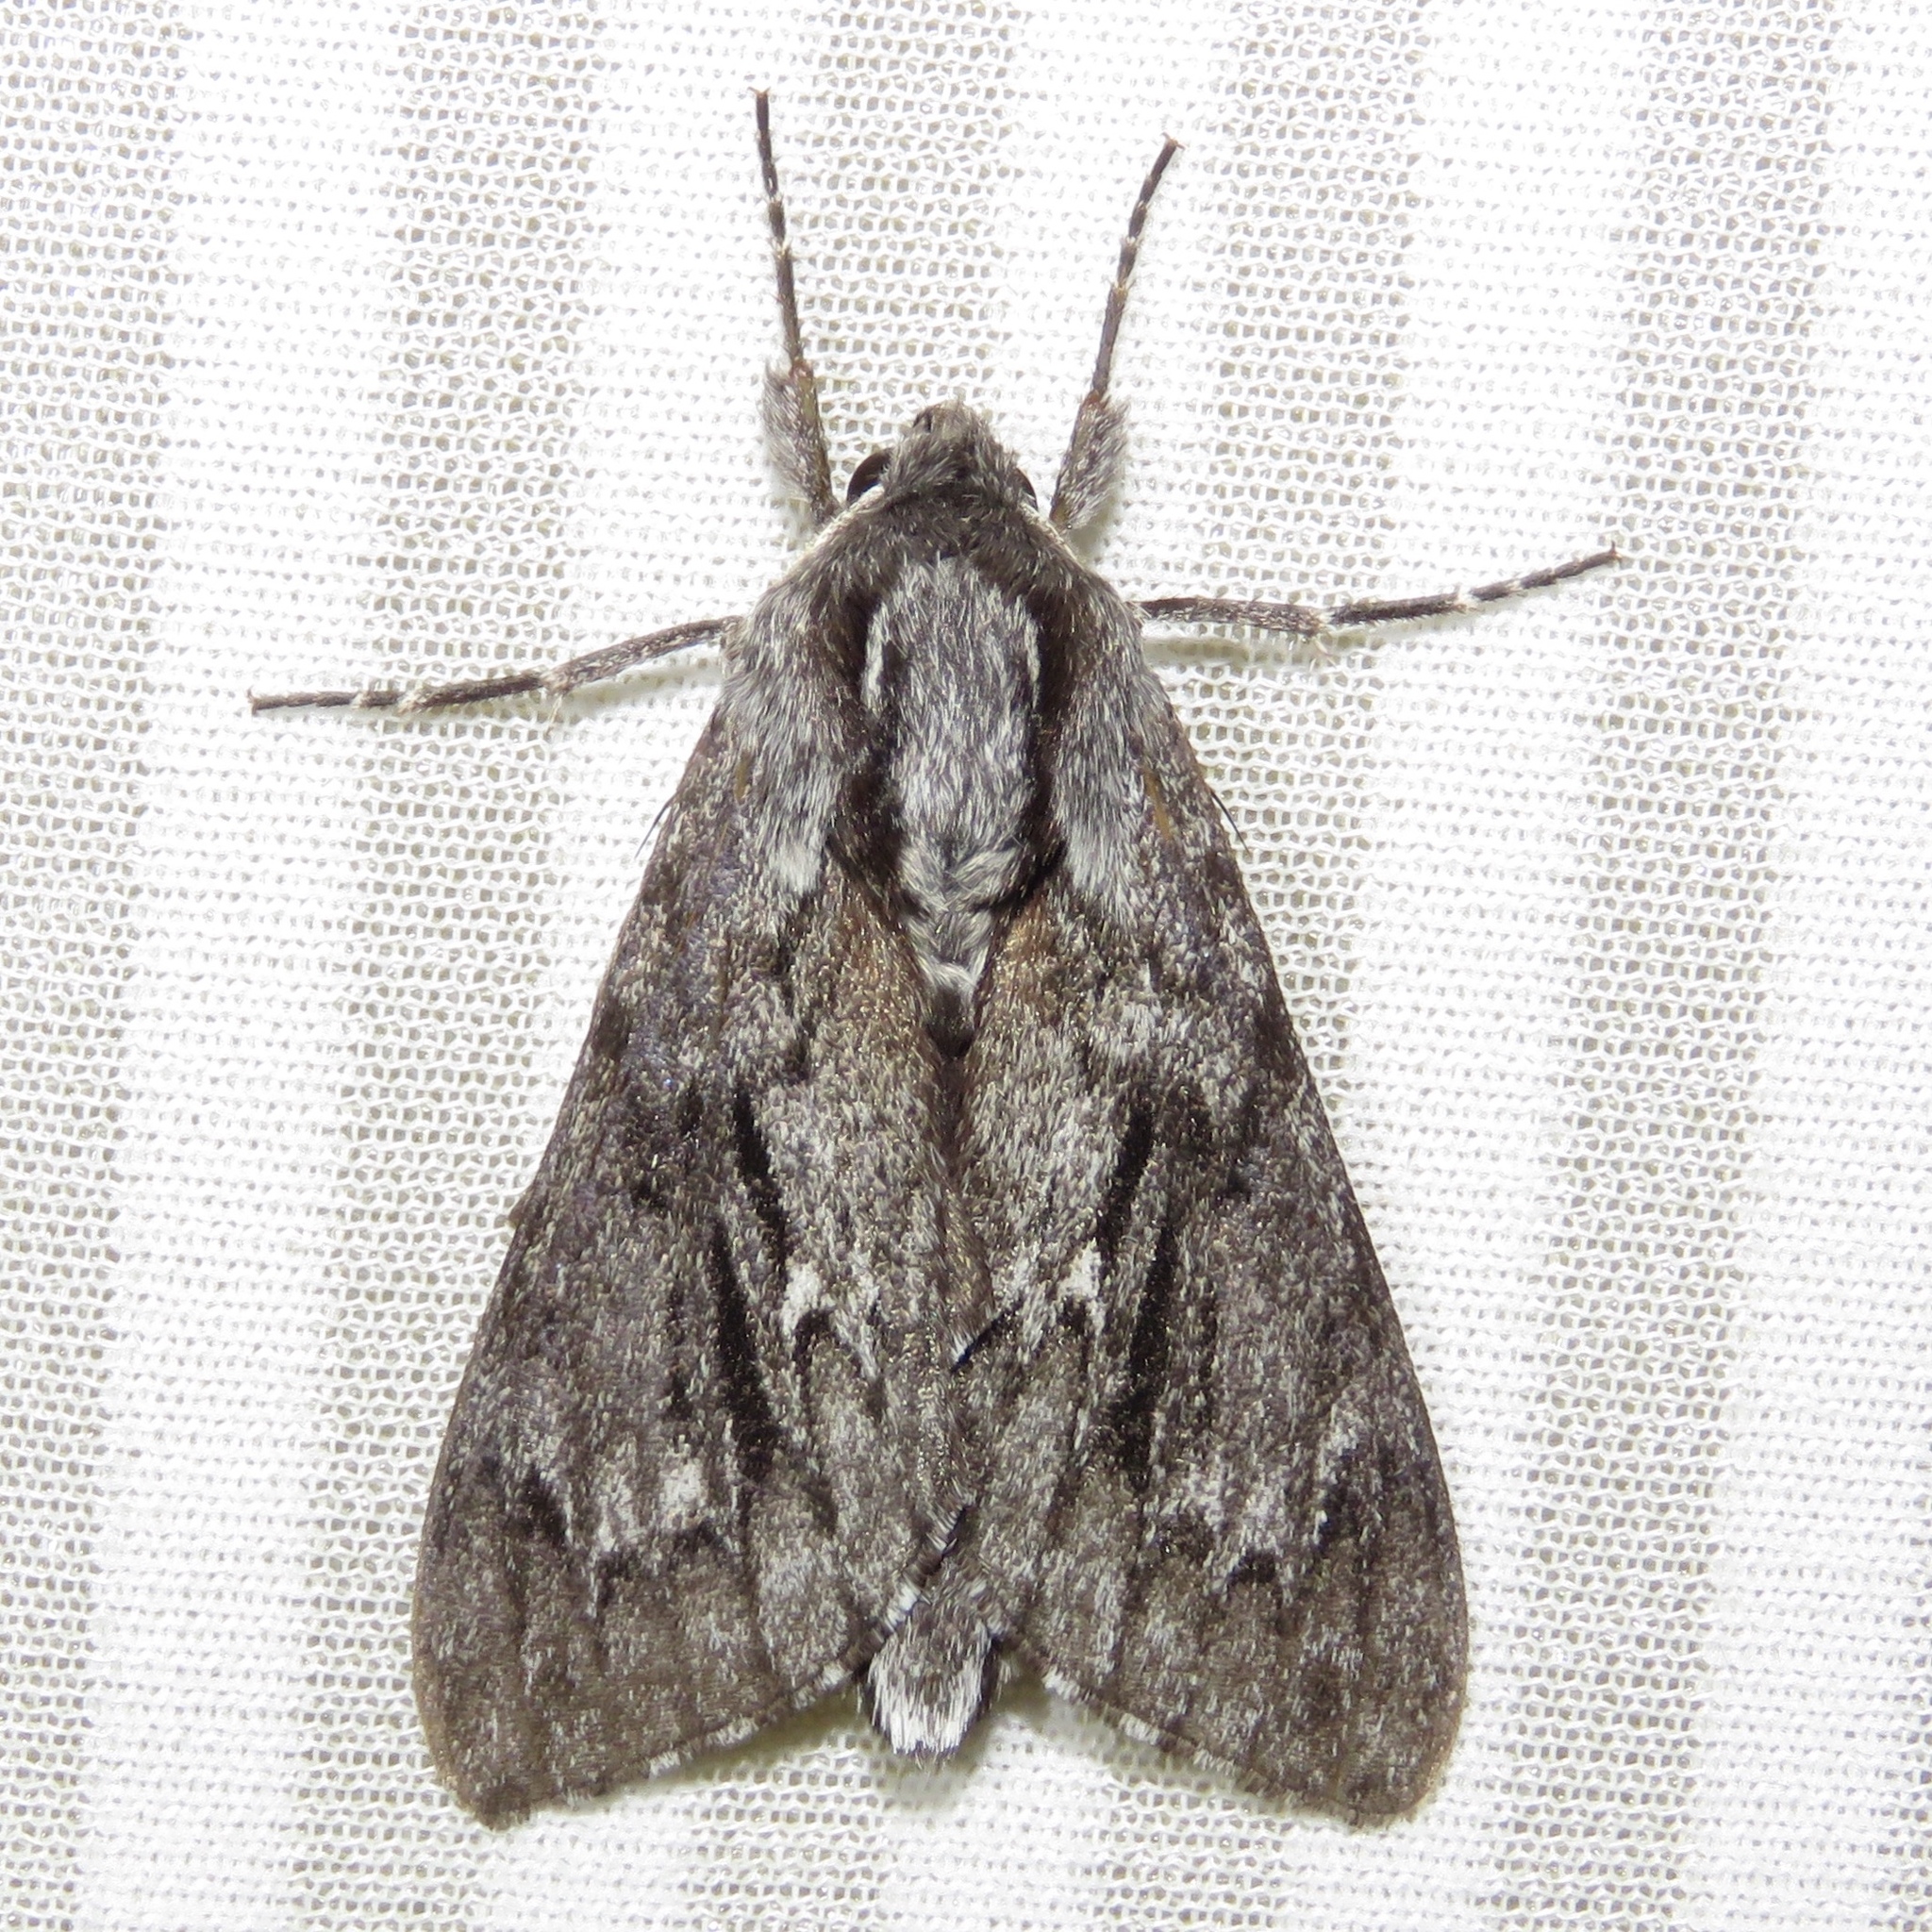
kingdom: Animalia
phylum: Arthropoda
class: Insecta
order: Lepidoptera
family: Sphingidae
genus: Lapara
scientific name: Lapara bombycoides
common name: Northern pine sphinx
